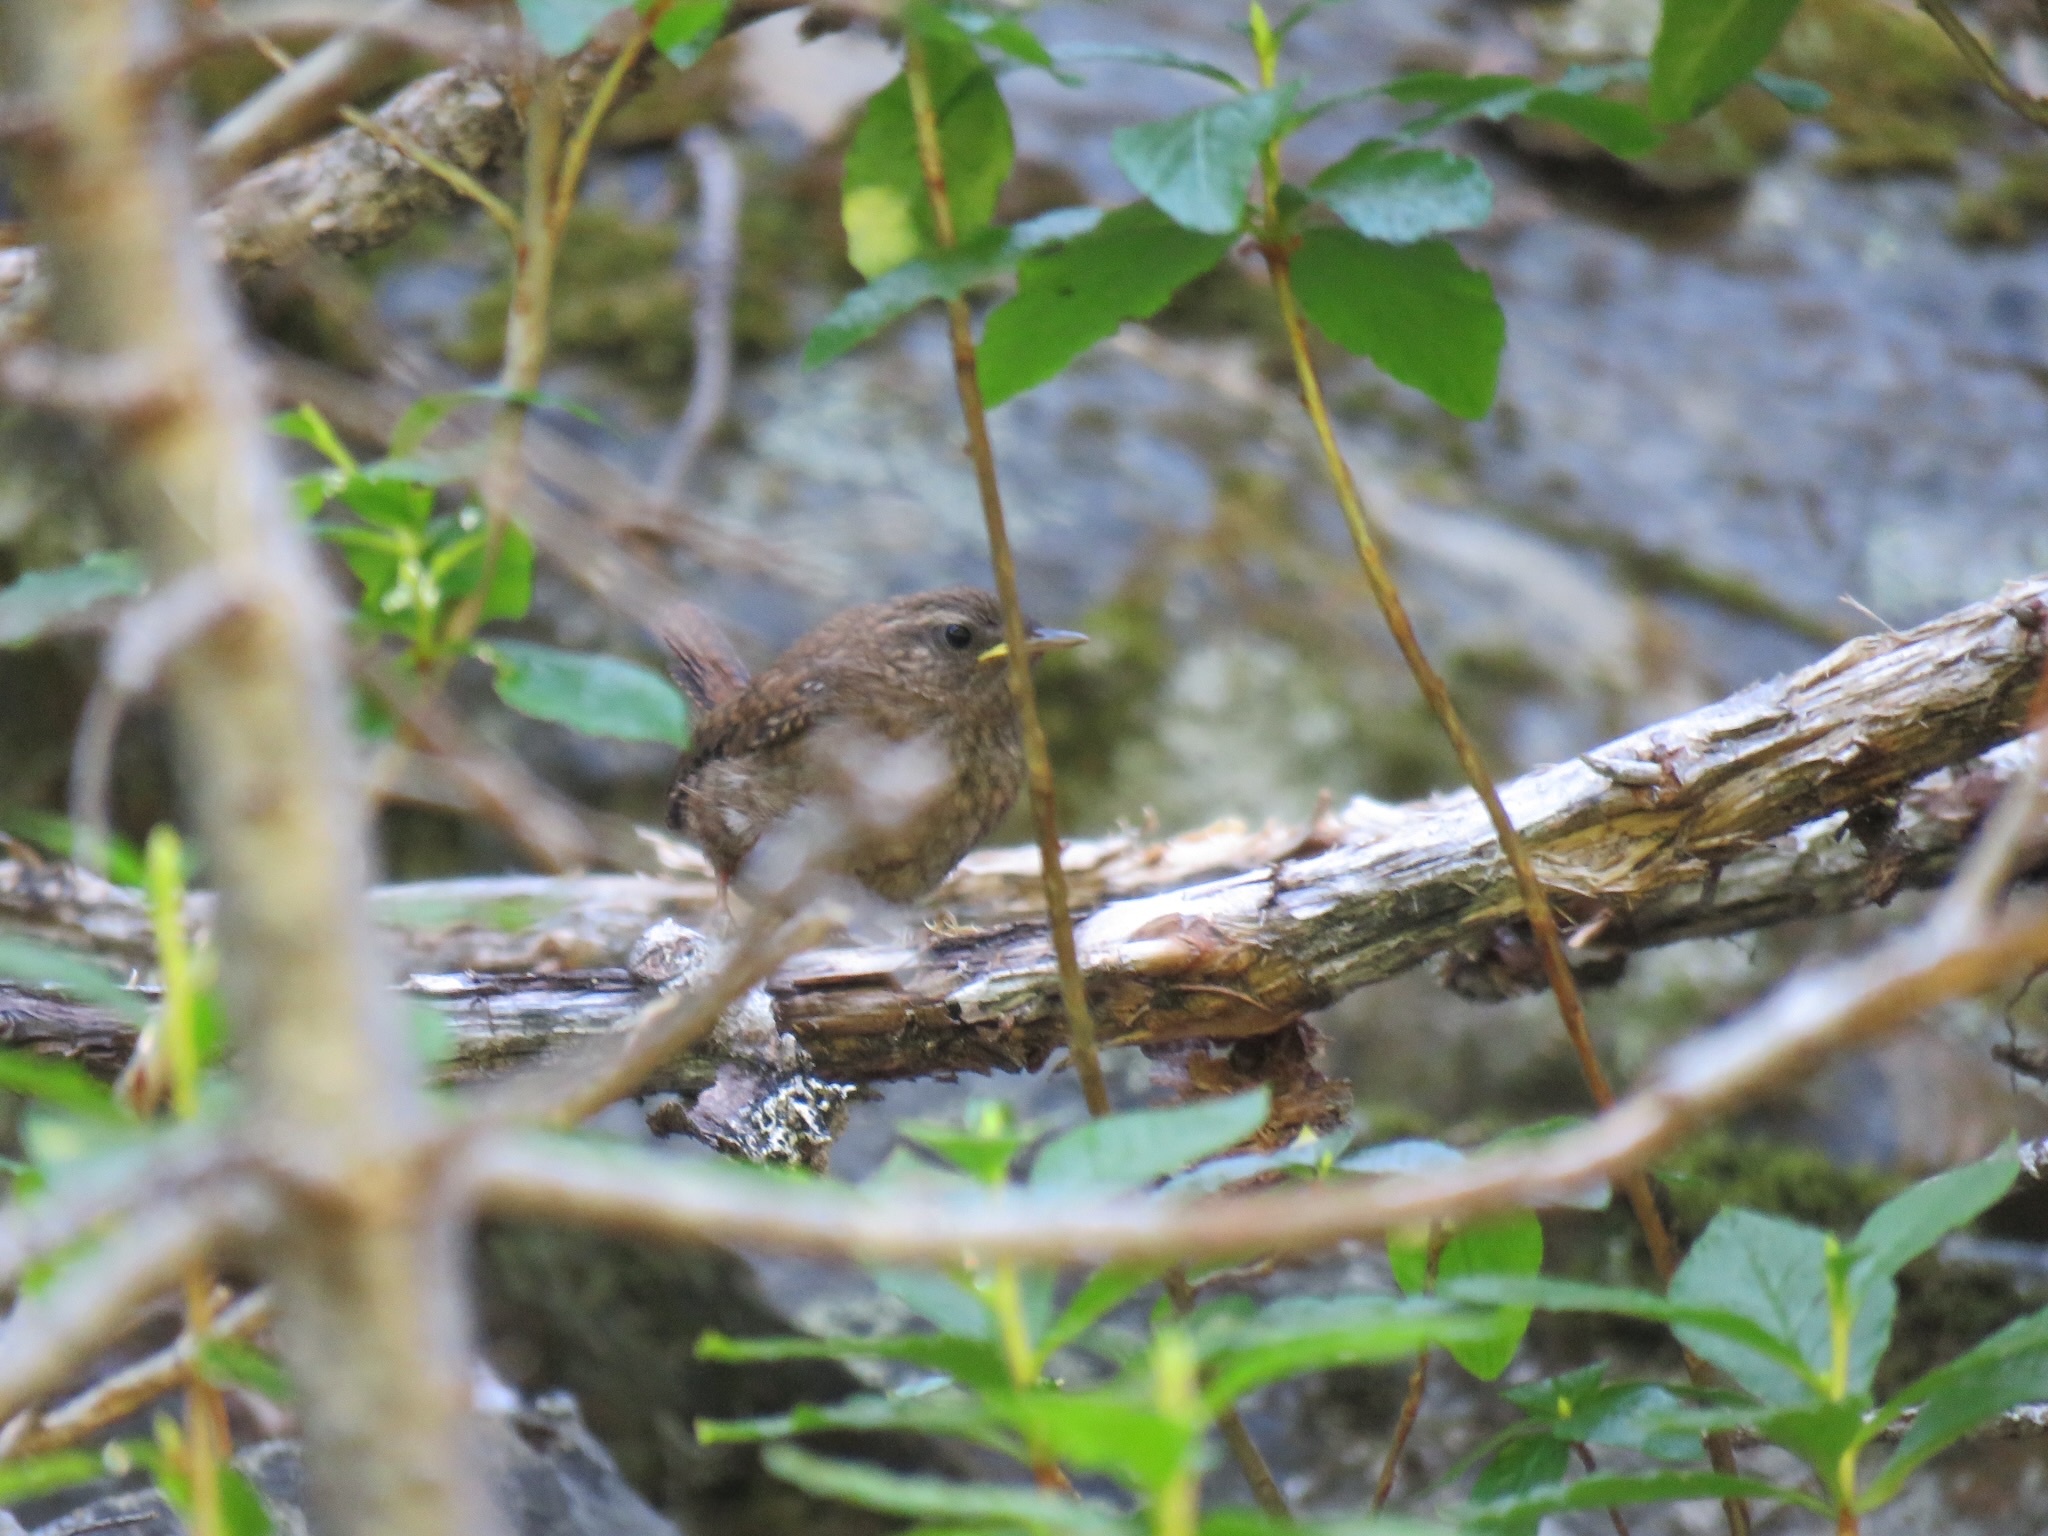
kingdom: Animalia
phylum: Chordata
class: Aves
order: Passeriformes
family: Troglodytidae
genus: Troglodytes
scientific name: Troglodytes pacificus
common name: Pacific wren
